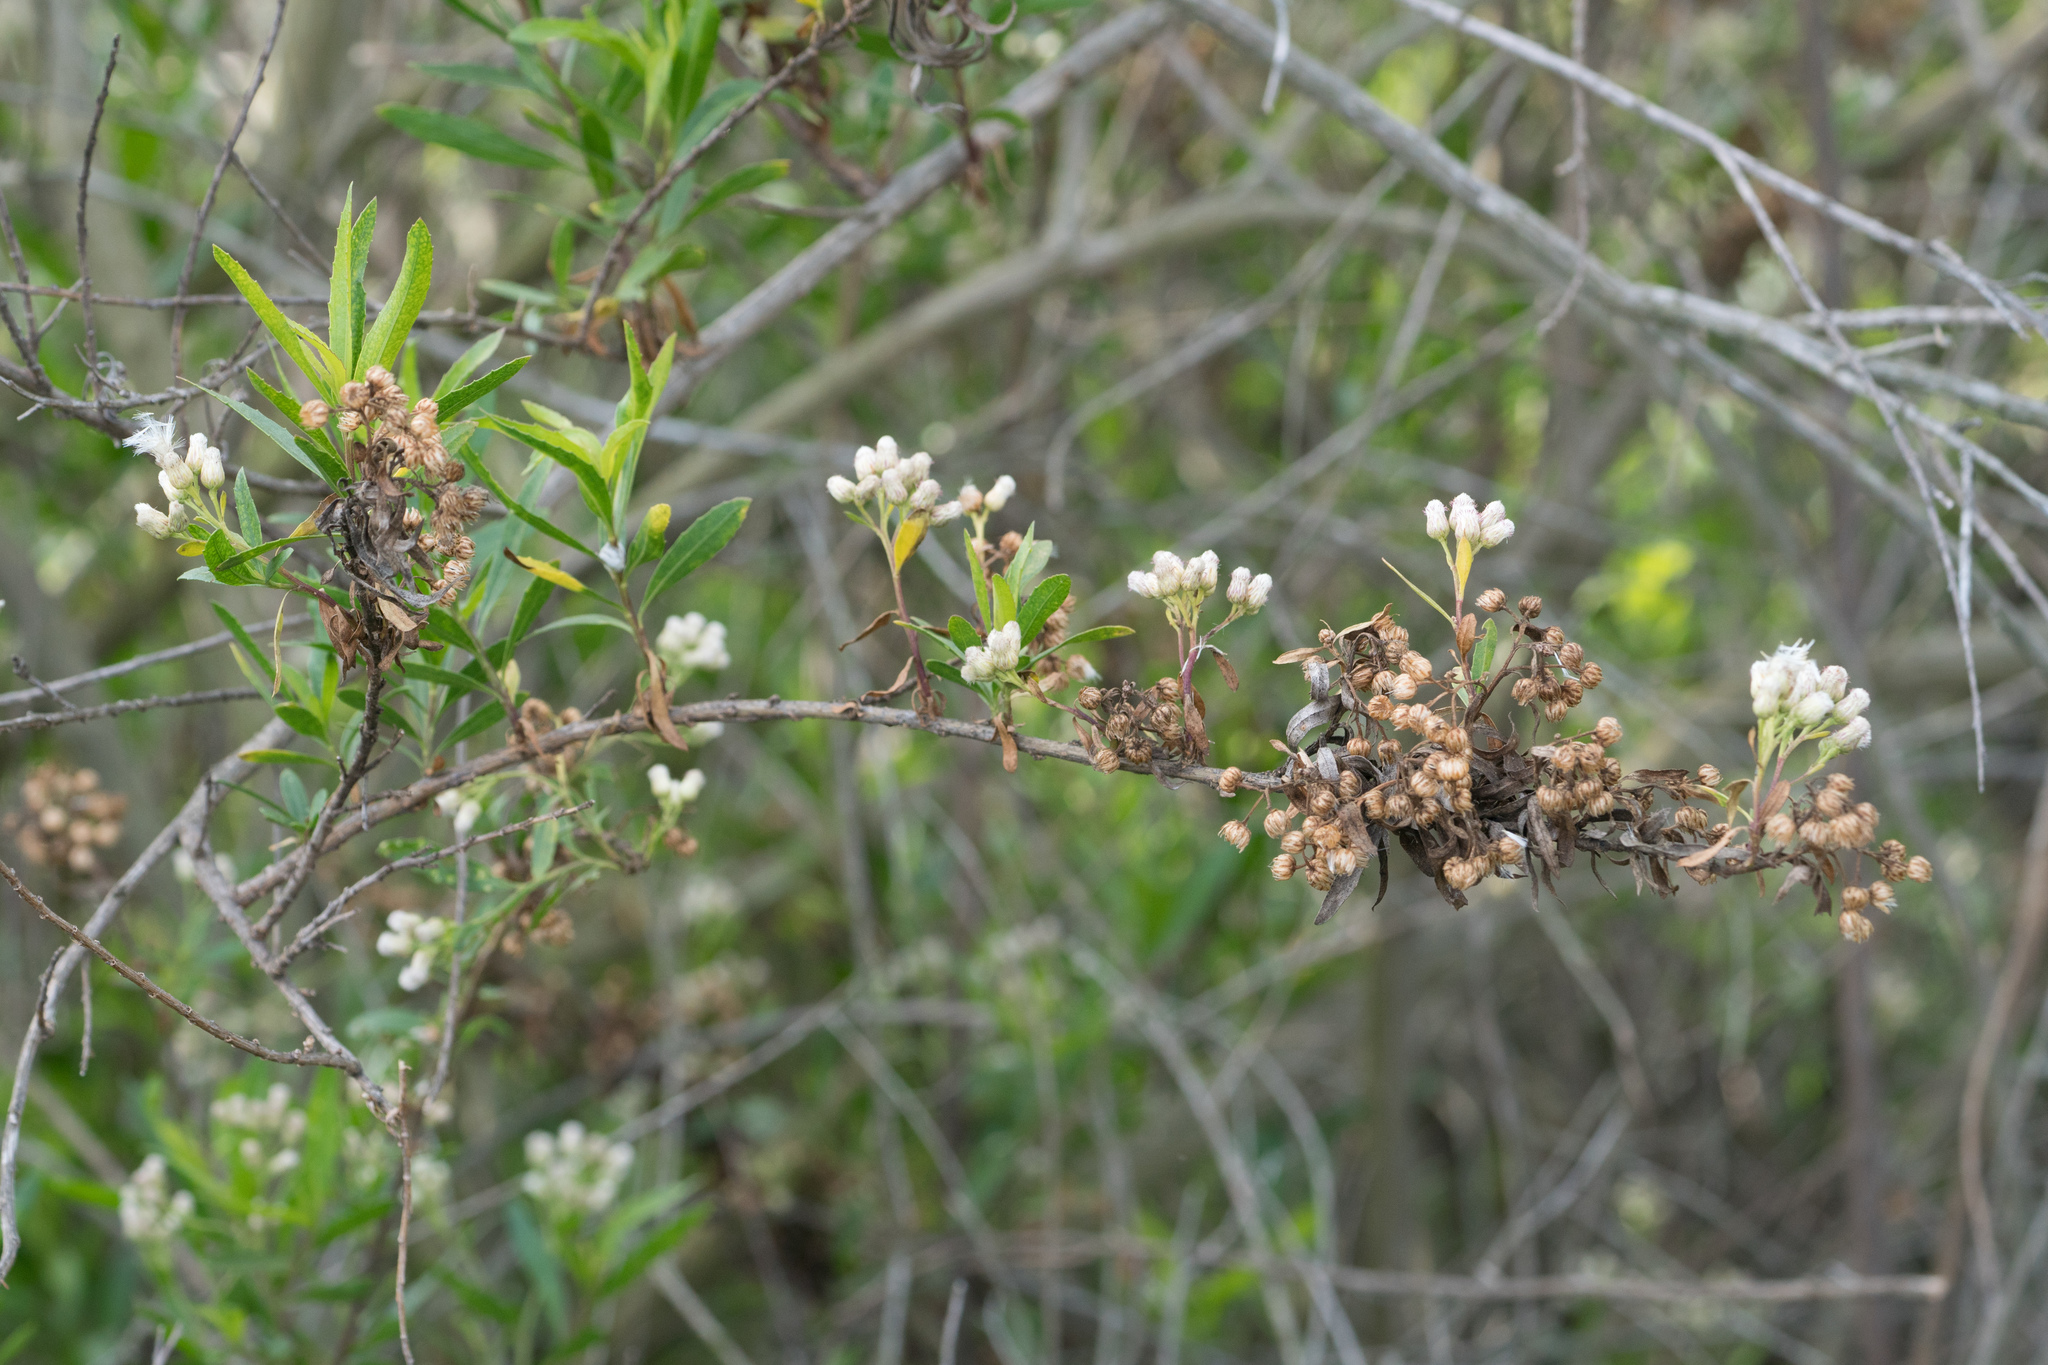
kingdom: Plantae
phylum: Tracheophyta
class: Magnoliopsida
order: Asterales
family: Asteraceae
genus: Baccharis
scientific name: Baccharis salicifolia
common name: Sticky baccharis
